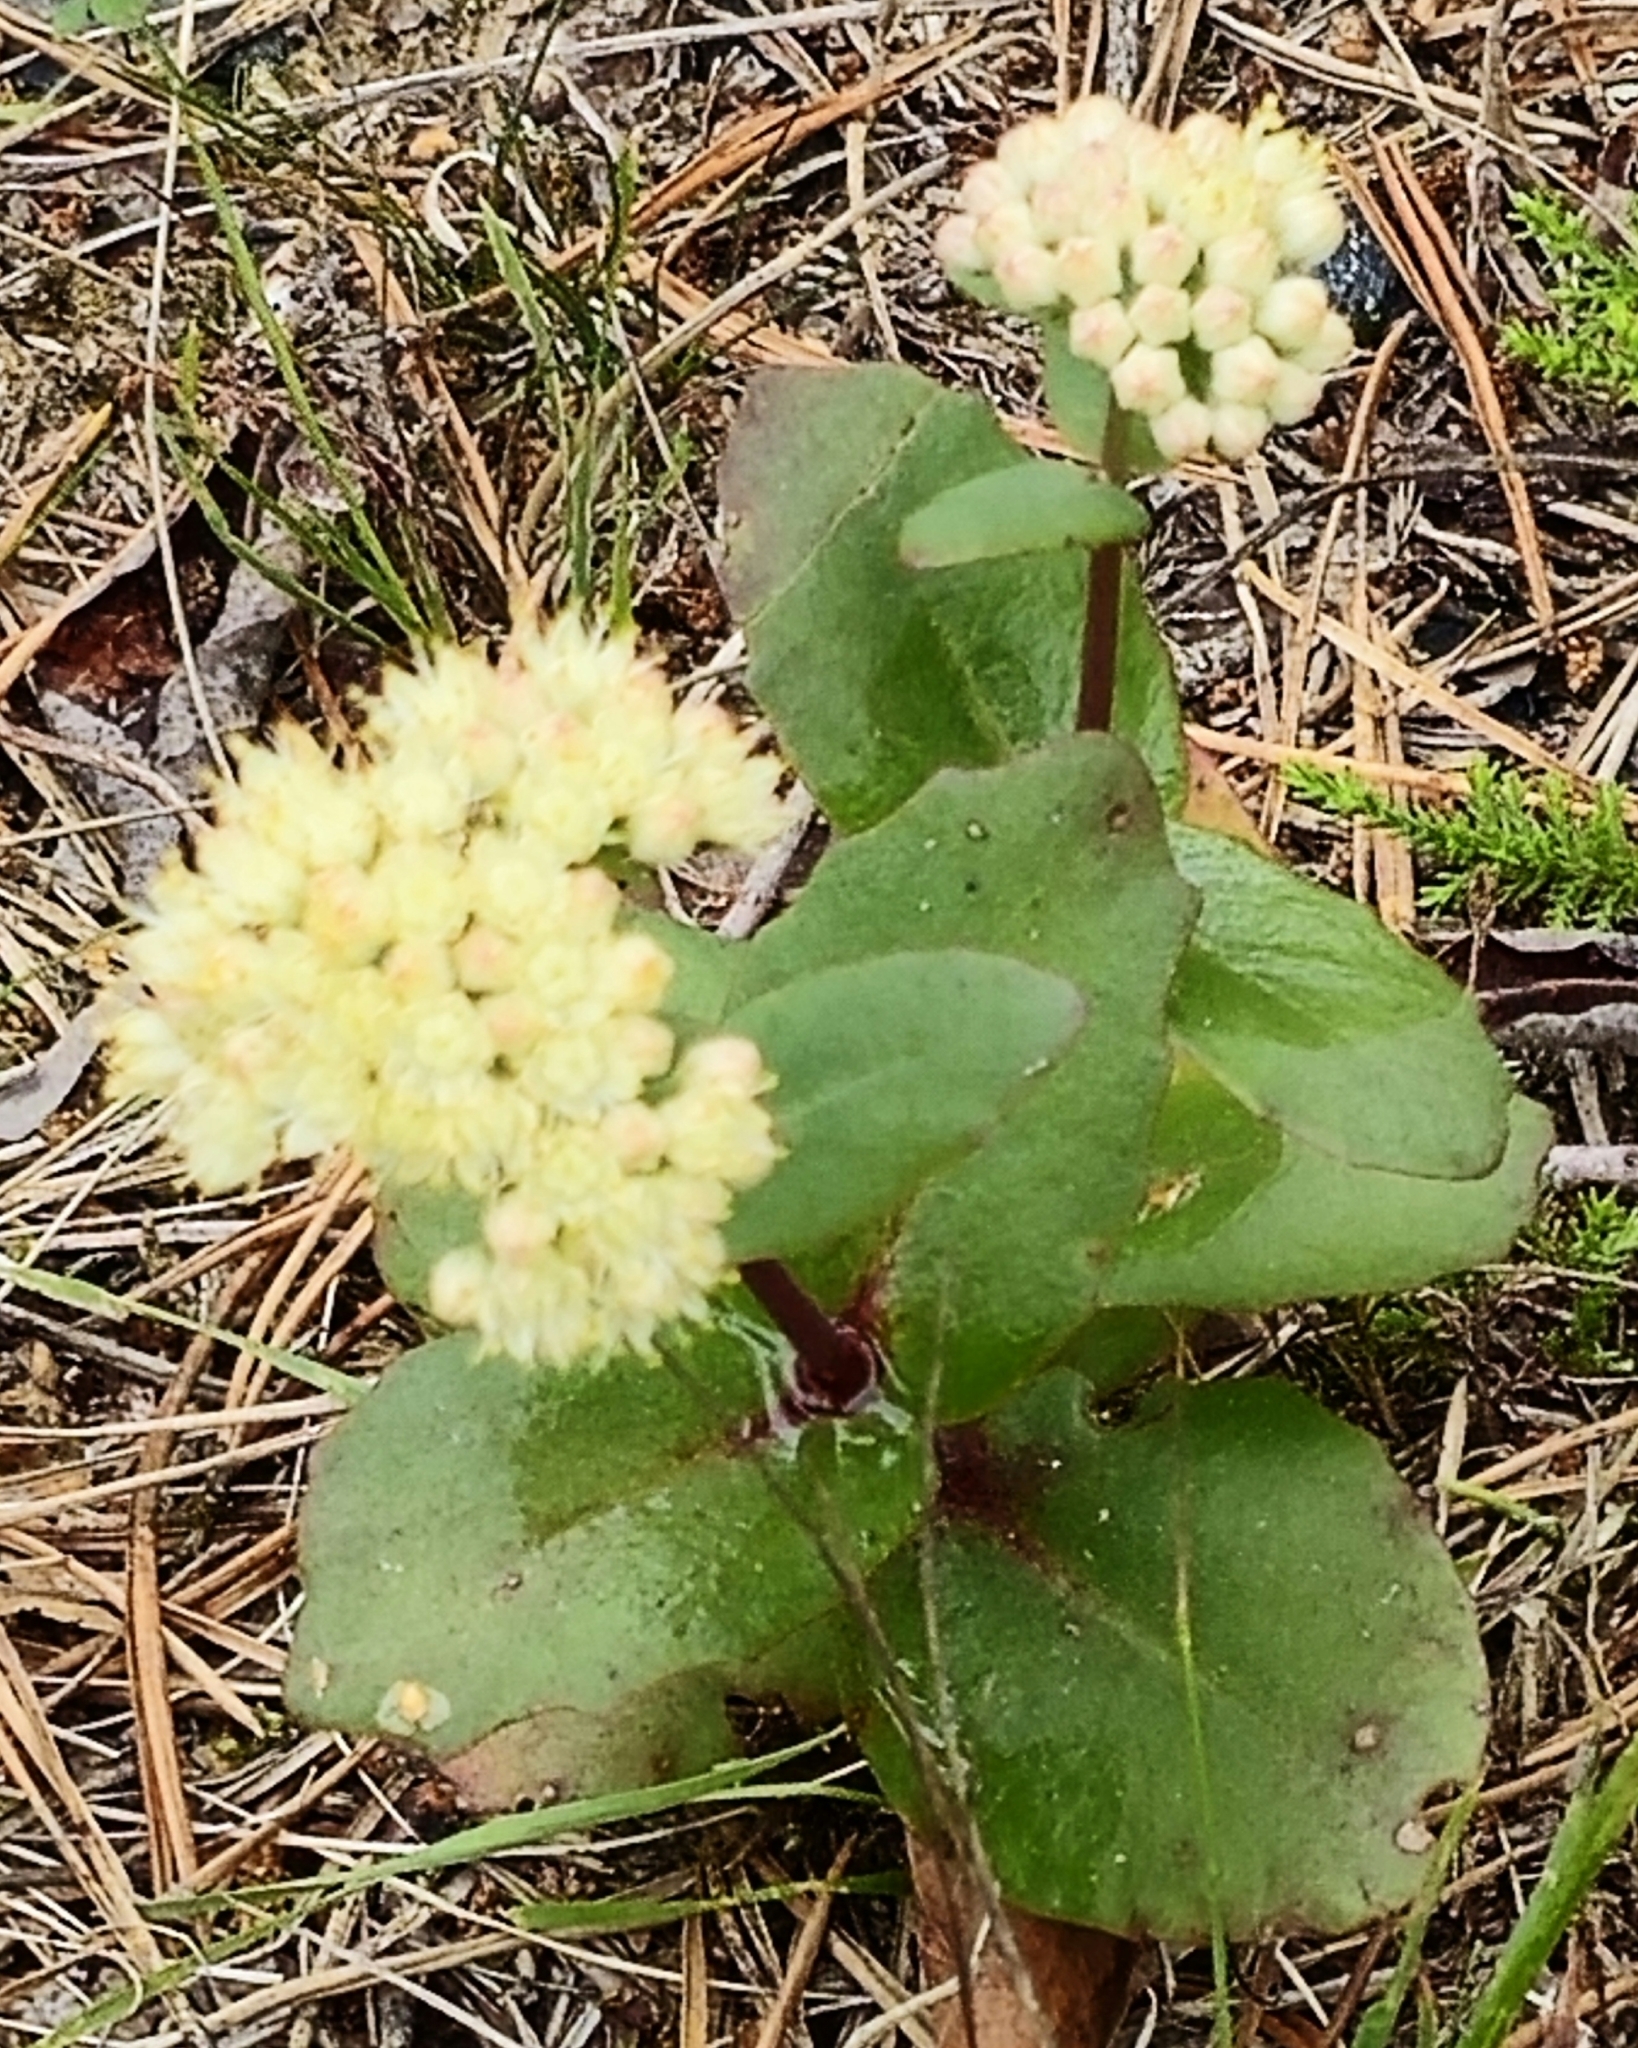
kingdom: Plantae
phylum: Tracheophyta
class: Magnoliopsida
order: Saxifragales
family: Crassulaceae
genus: Hylotelephium
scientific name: Hylotelephium maximum
